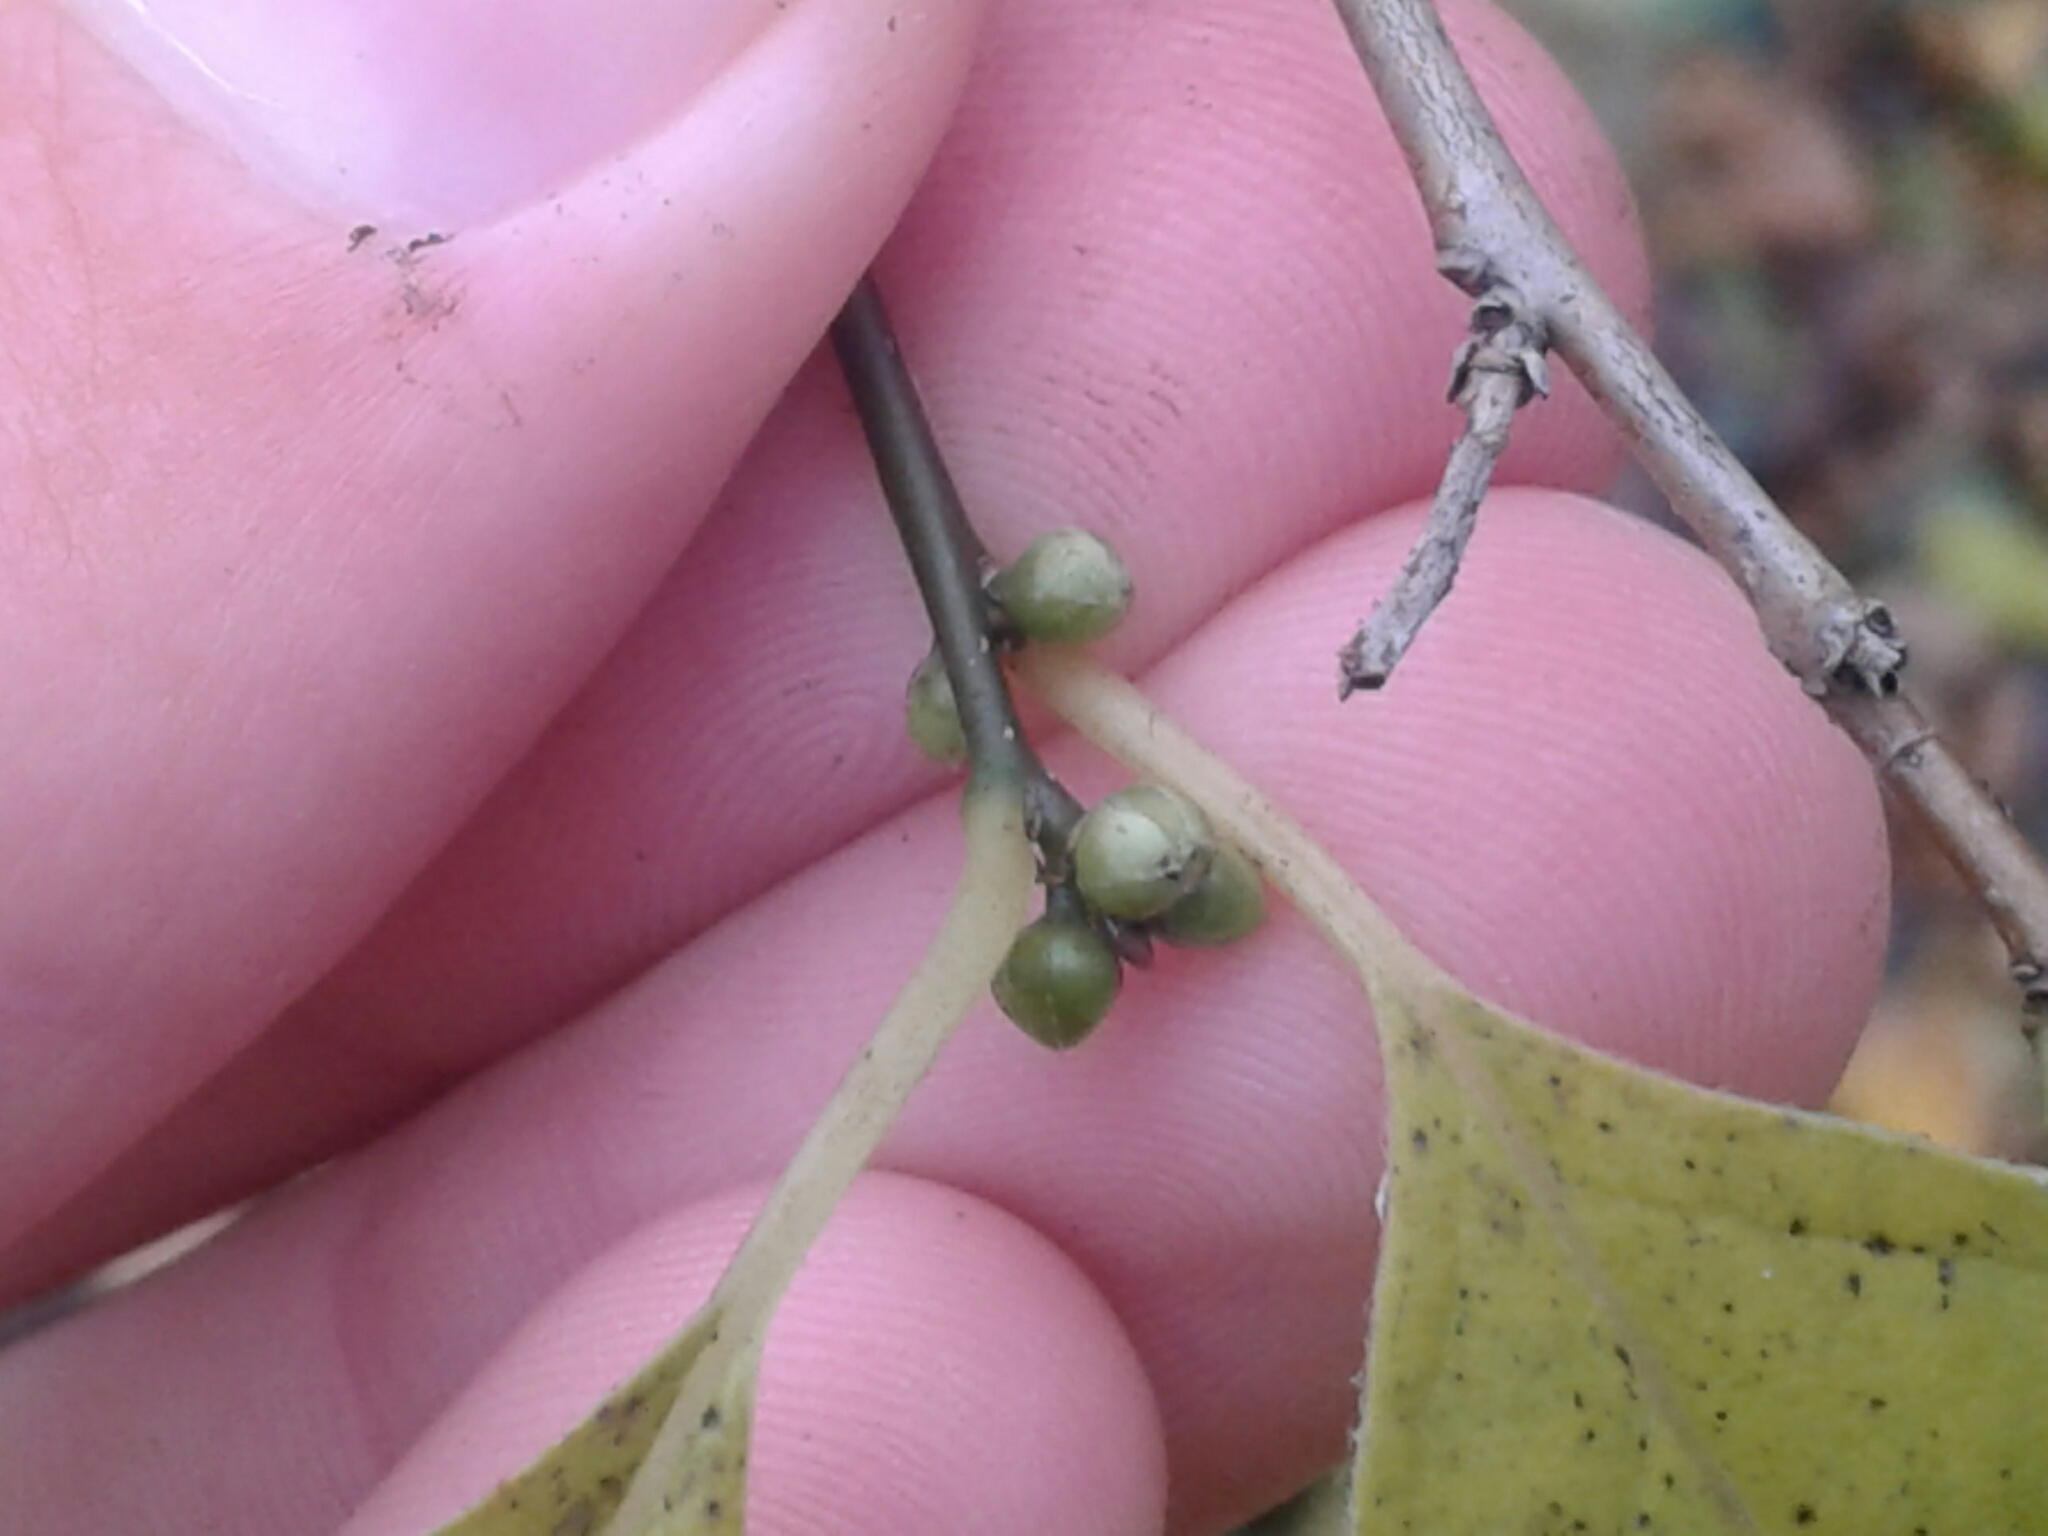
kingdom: Plantae
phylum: Tracheophyta
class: Magnoliopsida
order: Laurales
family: Lauraceae
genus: Lindera
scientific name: Lindera benzoin
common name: Spicebush
